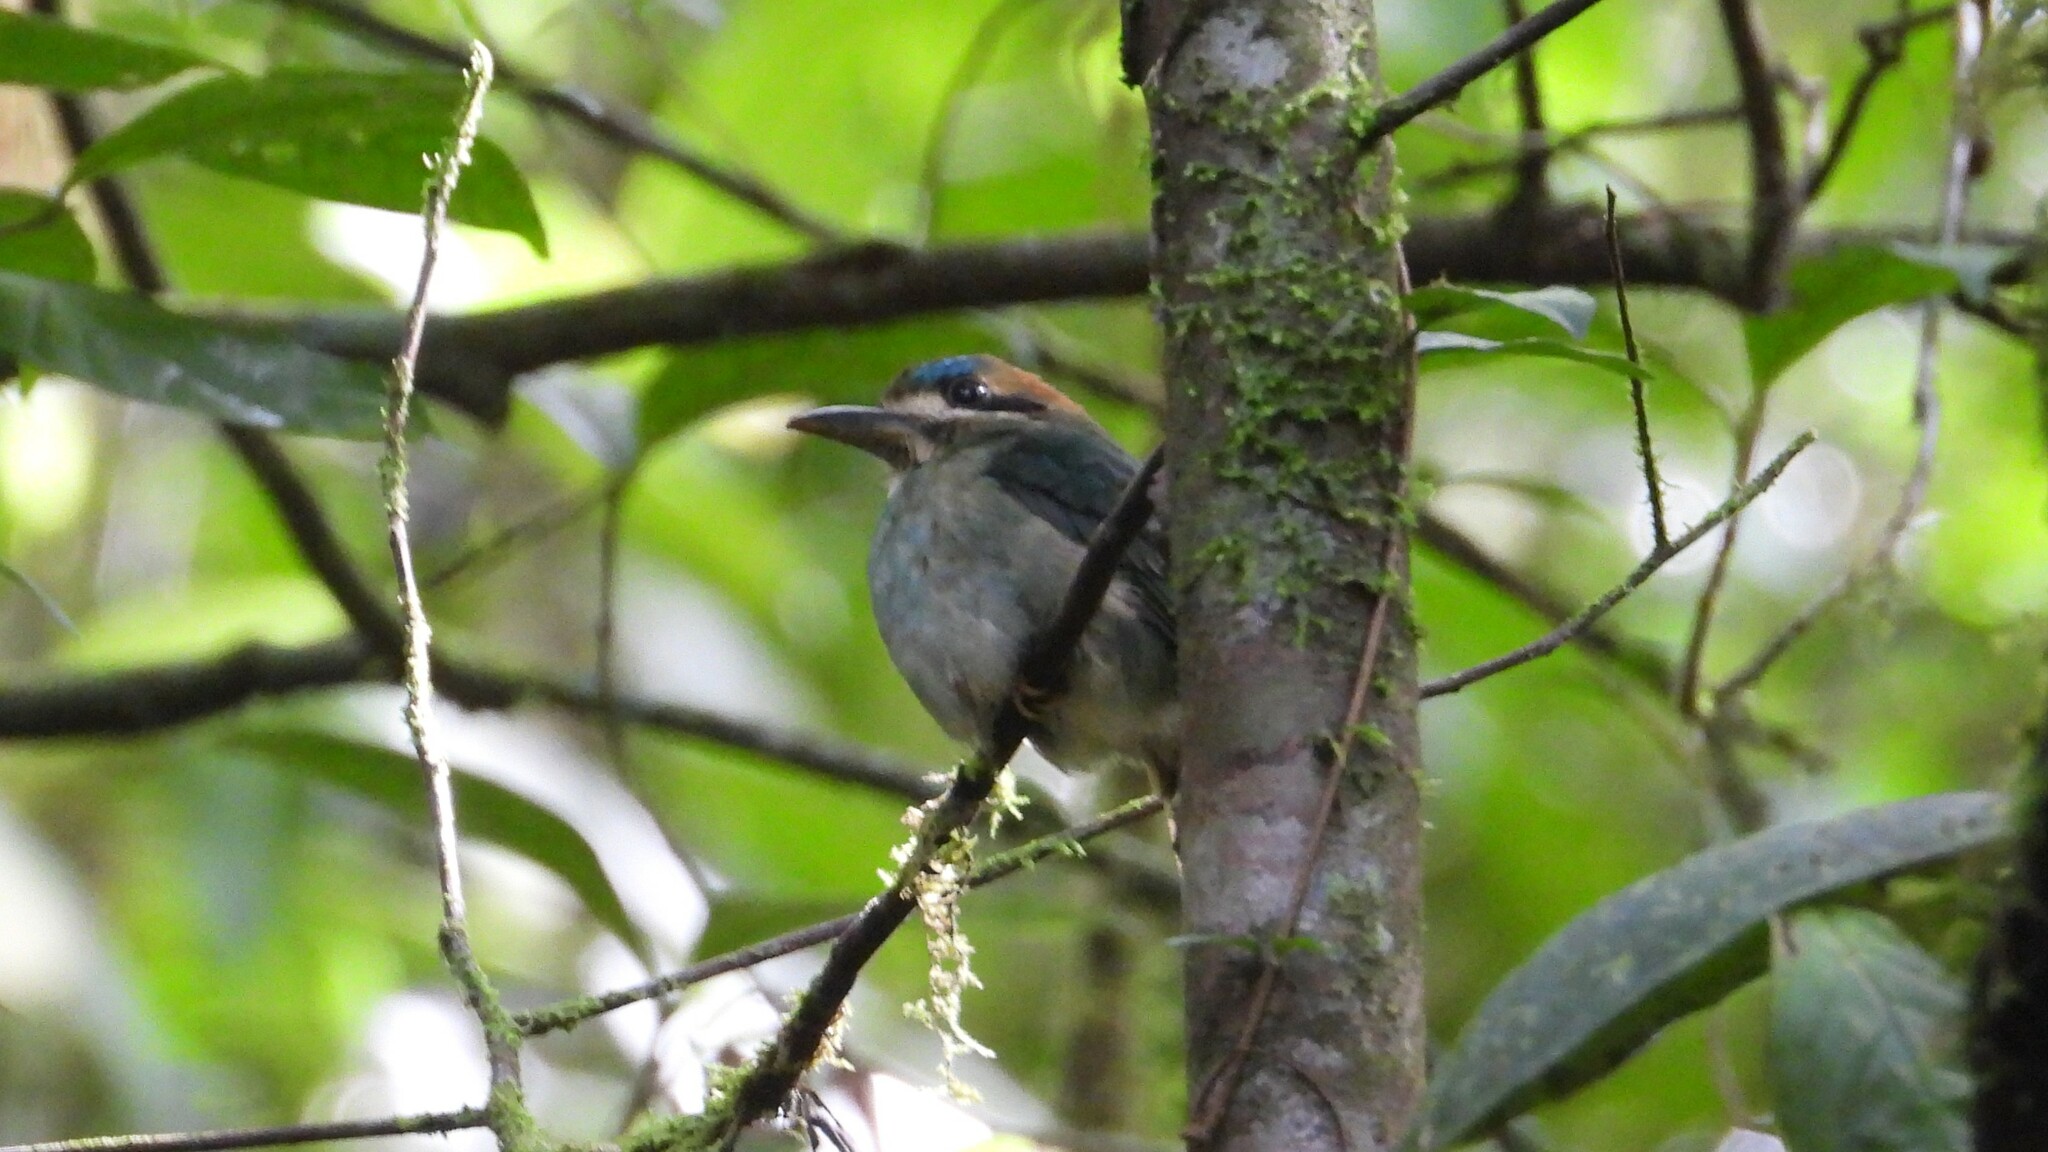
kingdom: Animalia
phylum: Chordata
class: Aves
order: Coraciiformes
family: Momotidae
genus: Hylomanes
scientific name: Hylomanes momotula
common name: Tody motmot
